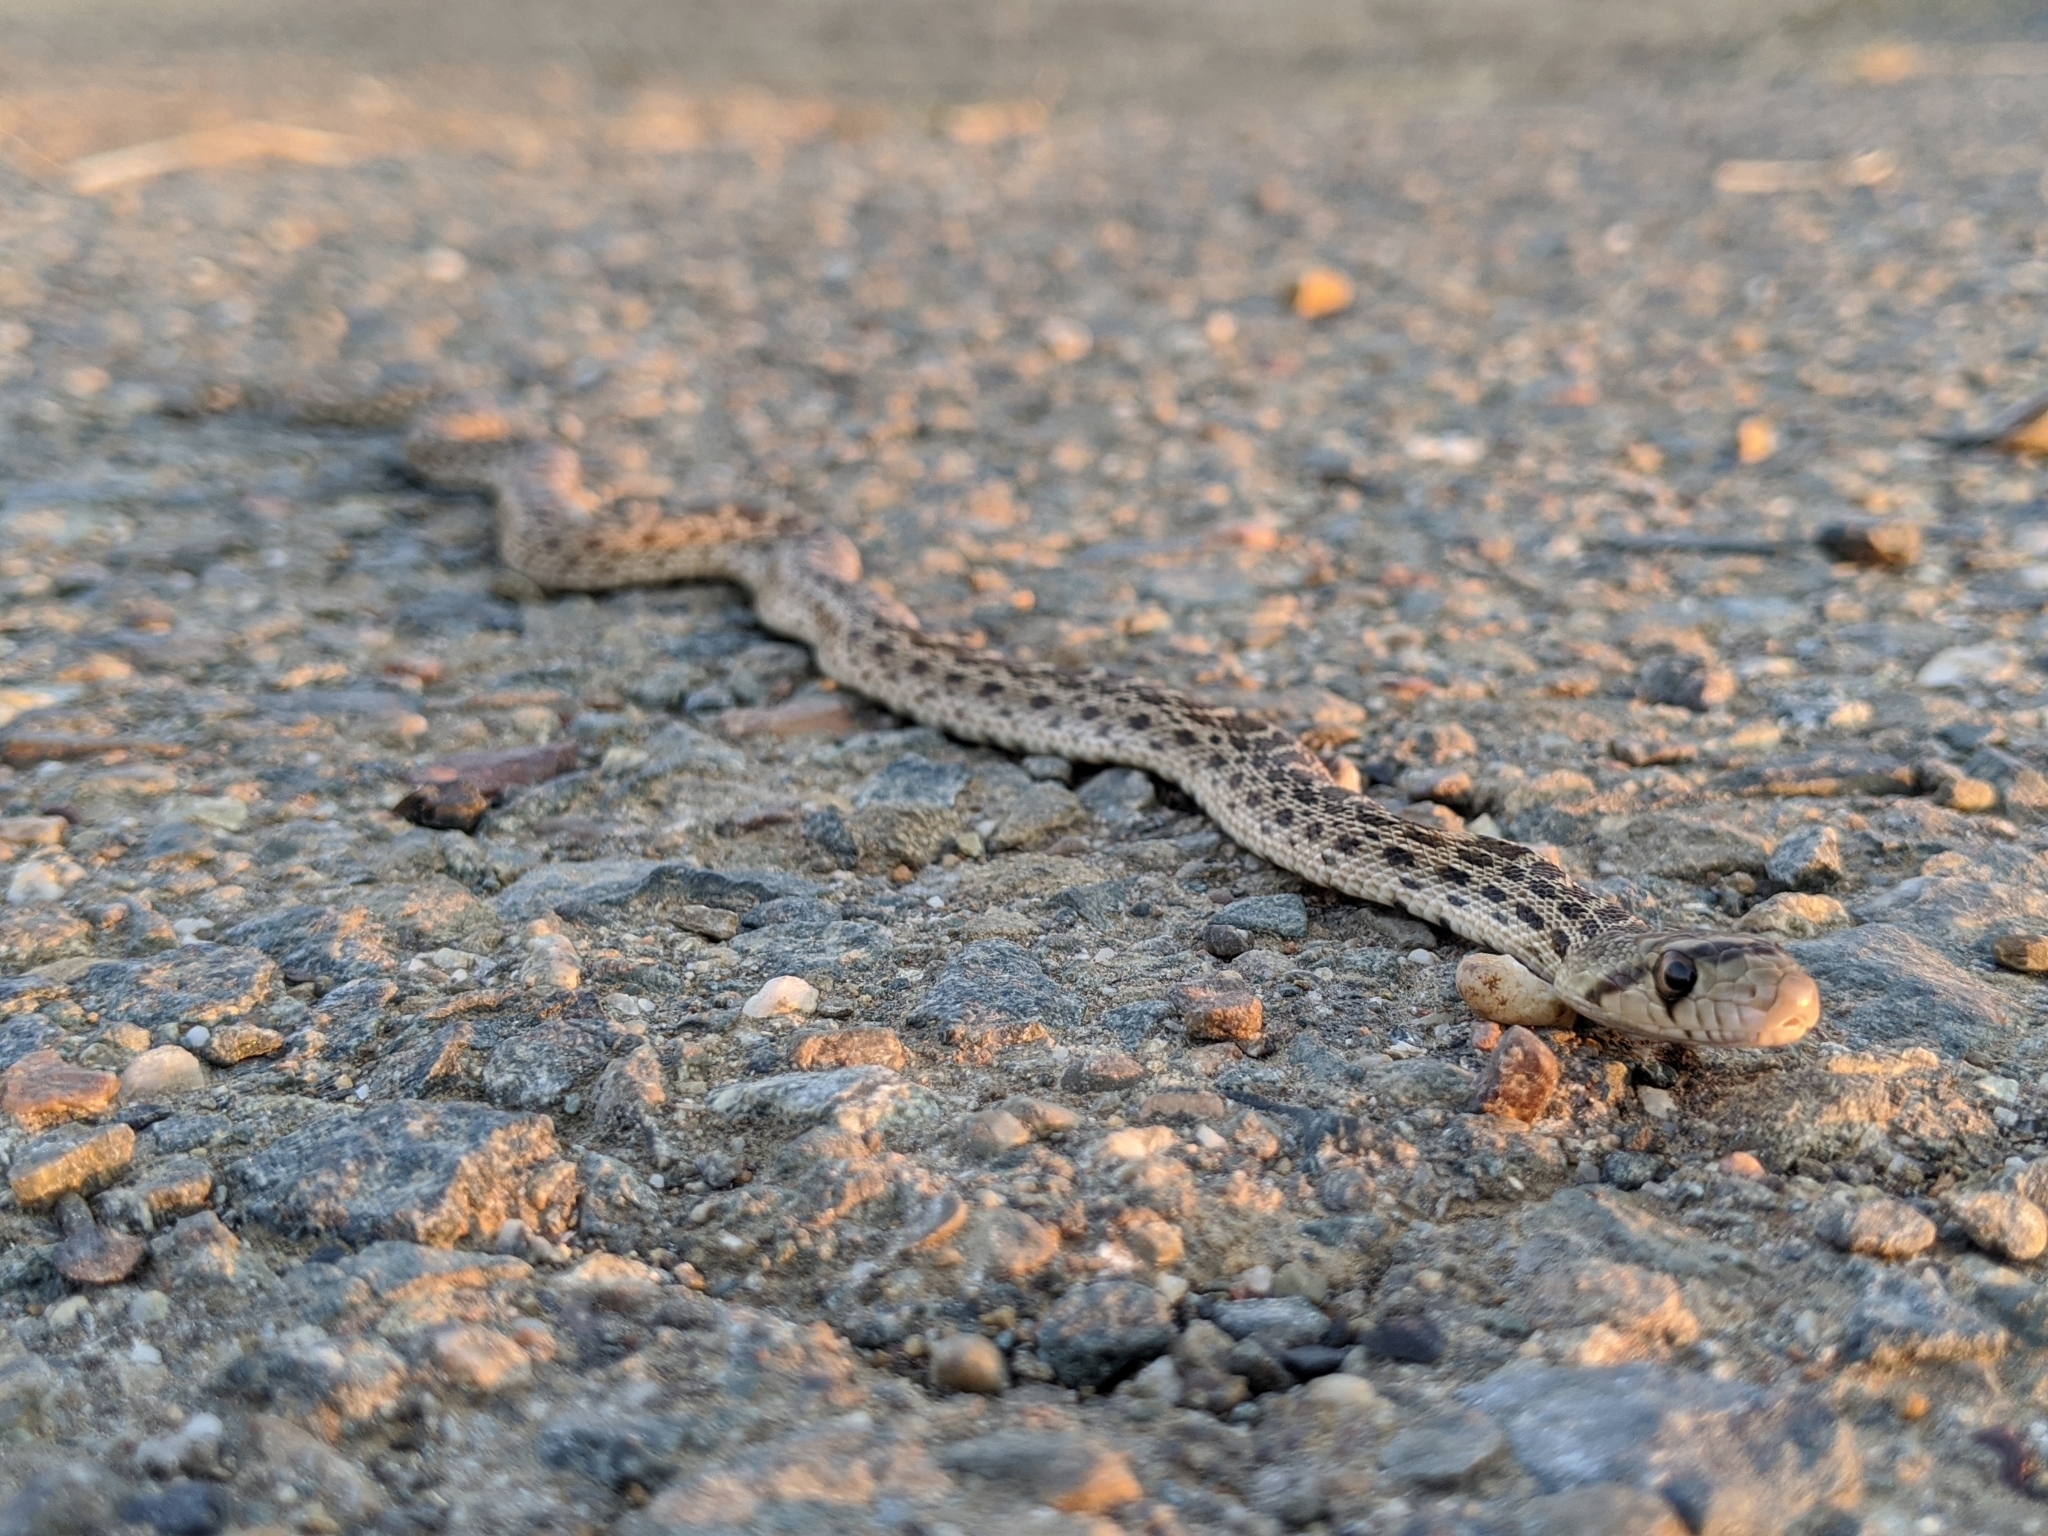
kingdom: Animalia
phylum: Chordata
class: Squamata
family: Colubridae
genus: Pituophis
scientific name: Pituophis catenifer
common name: Gopher snake
